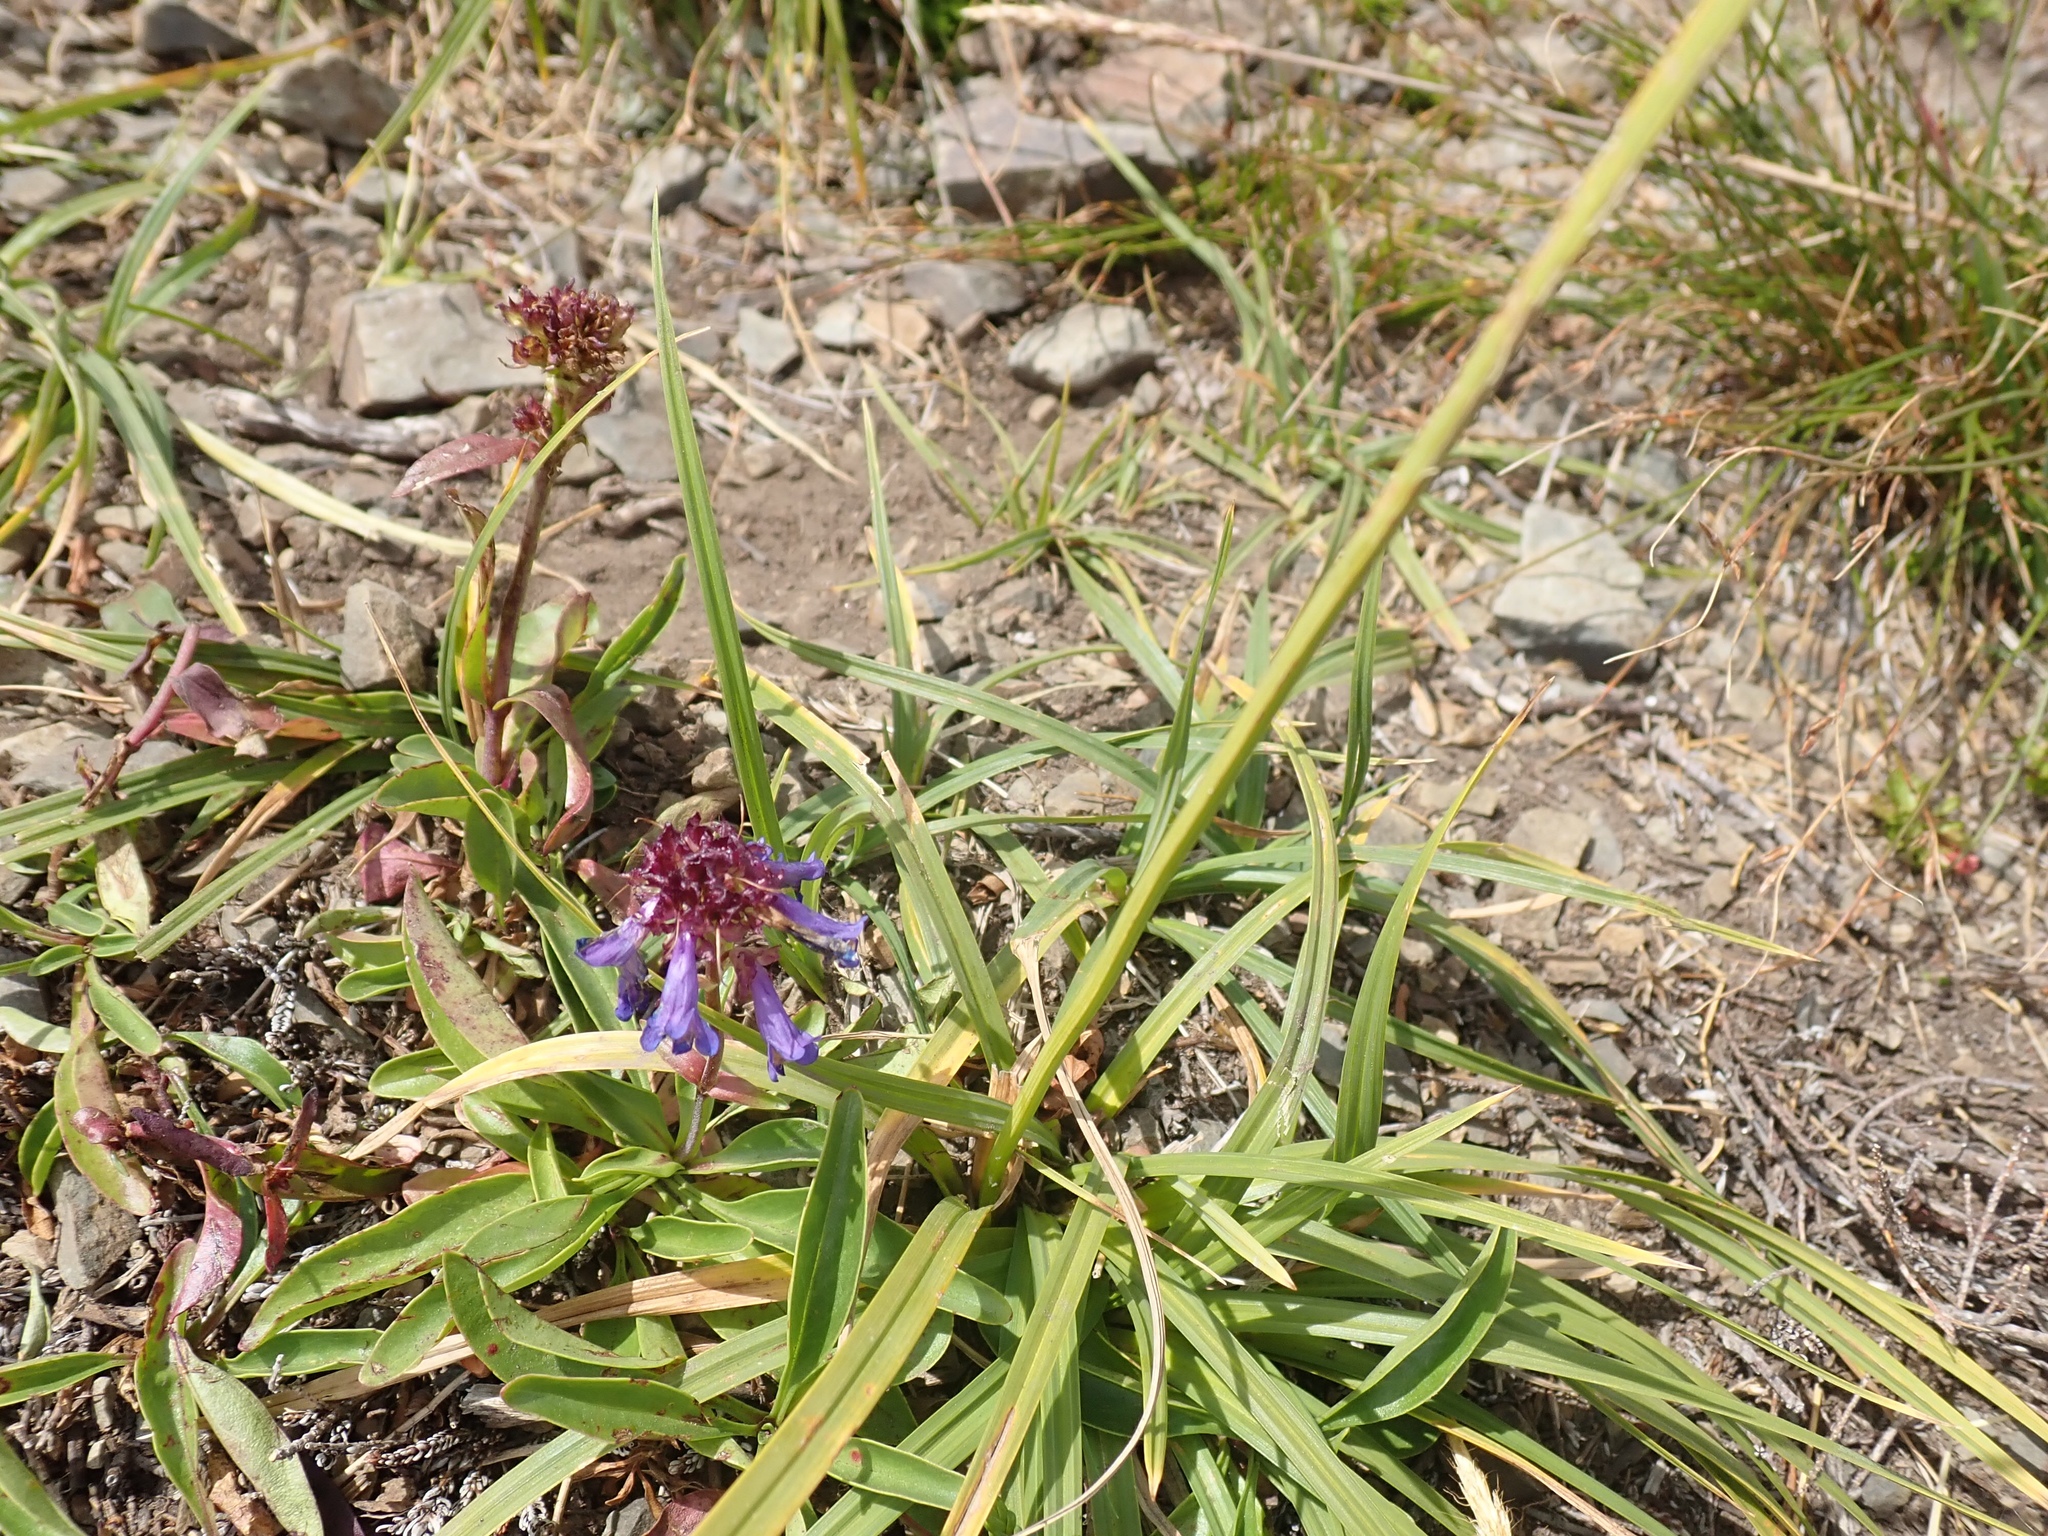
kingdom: Plantae
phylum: Tracheophyta
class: Magnoliopsida
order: Lamiales
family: Plantaginaceae
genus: Penstemon
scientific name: Penstemon procerus
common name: Small-flower penstemon
